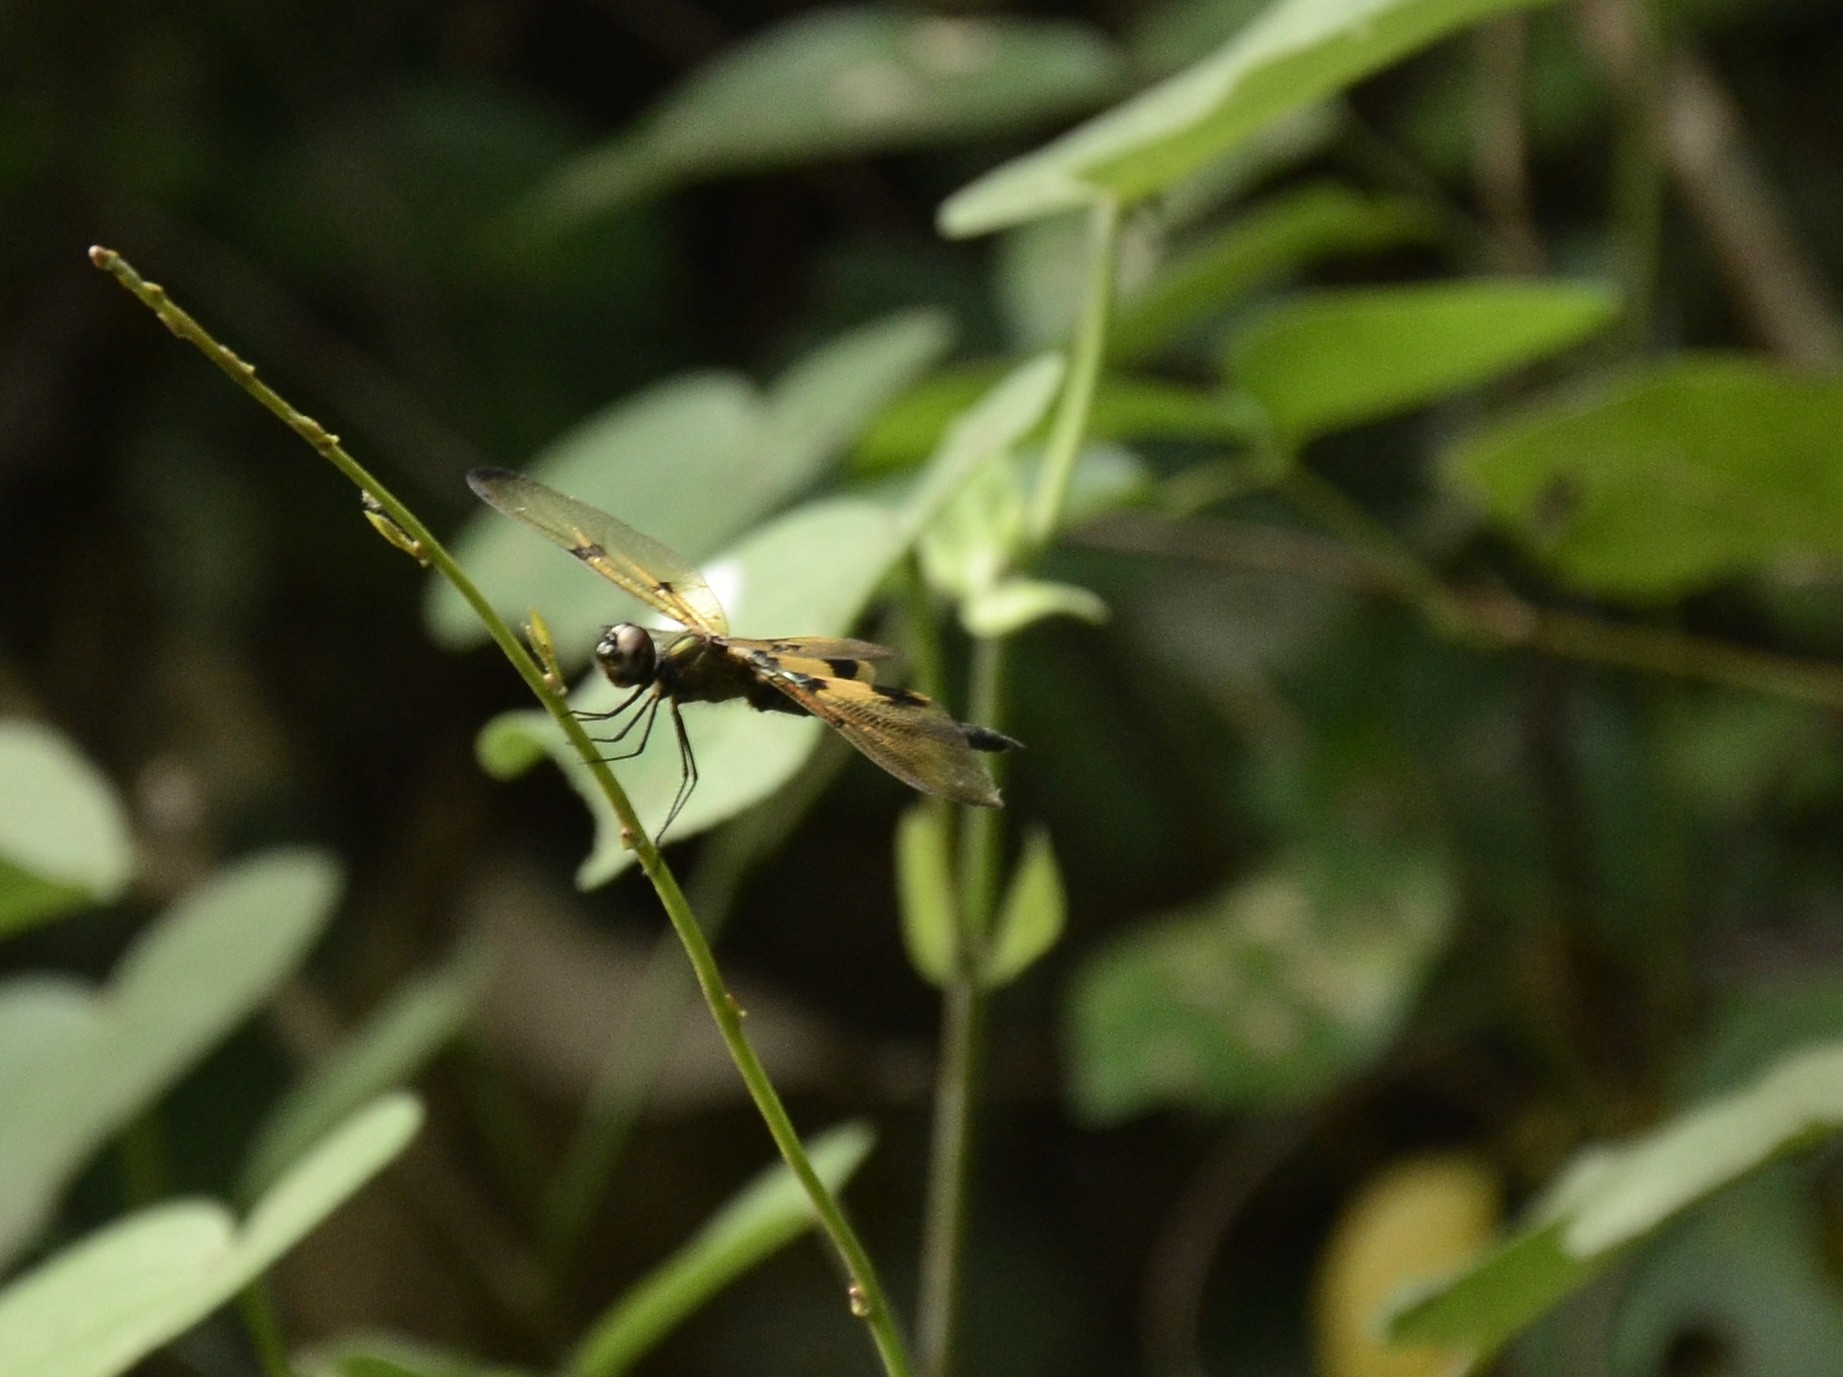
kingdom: Animalia
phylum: Arthropoda
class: Insecta
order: Odonata
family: Libellulidae
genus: Rhyothemis
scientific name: Rhyothemis variegata
